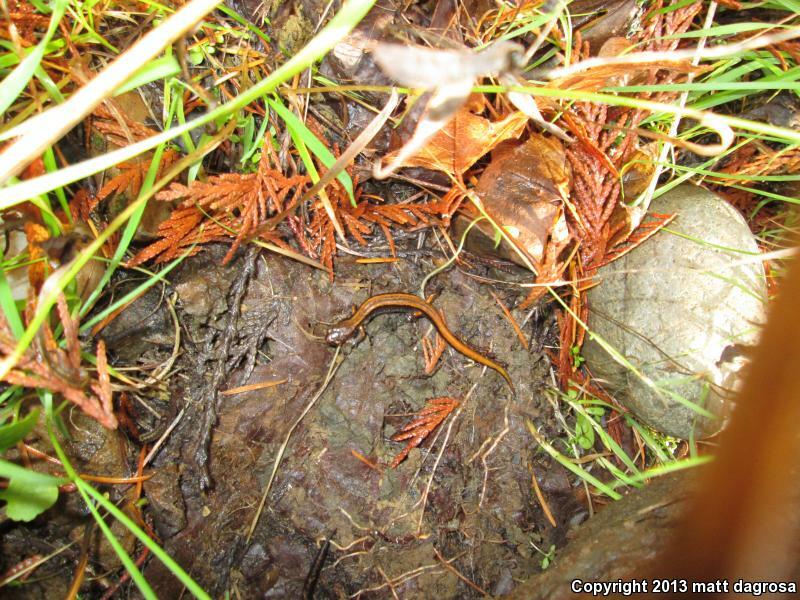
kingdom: Animalia
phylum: Chordata
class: Amphibia
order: Caudata
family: Plethodontidae
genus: Plethodon
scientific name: Plethodon vehiculum
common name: Western red-backed salamander
